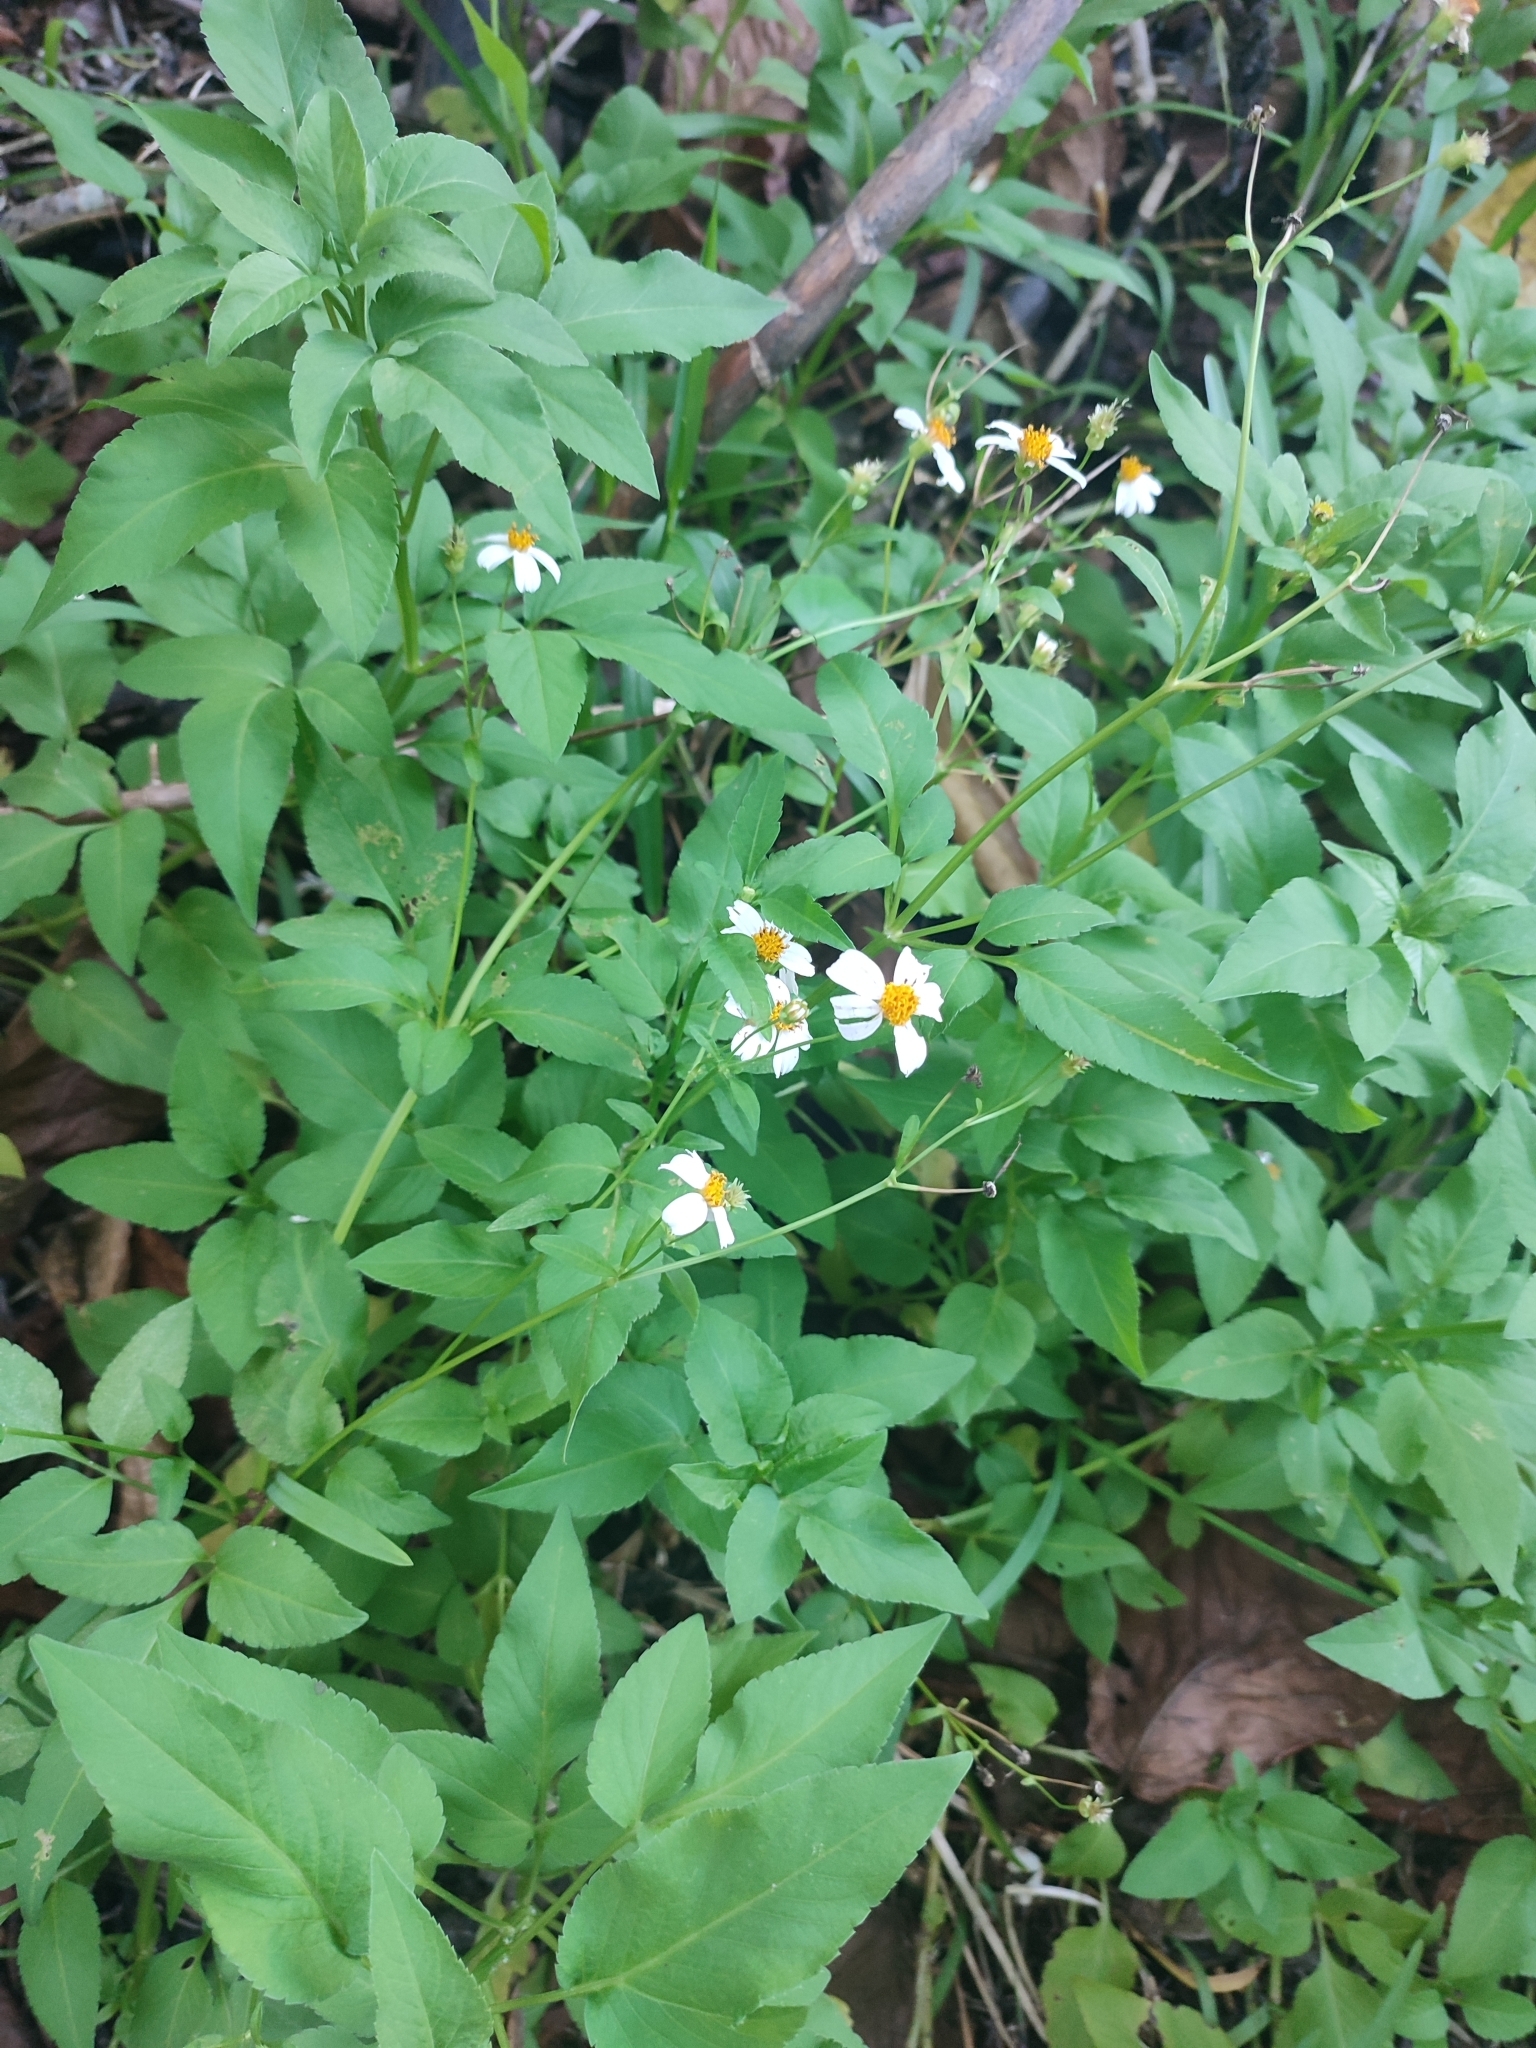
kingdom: Plantae
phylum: Tracheophyta
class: Magnoliopsida
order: Asterales
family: Asteraceae
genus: Bidens
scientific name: Bidens alba
